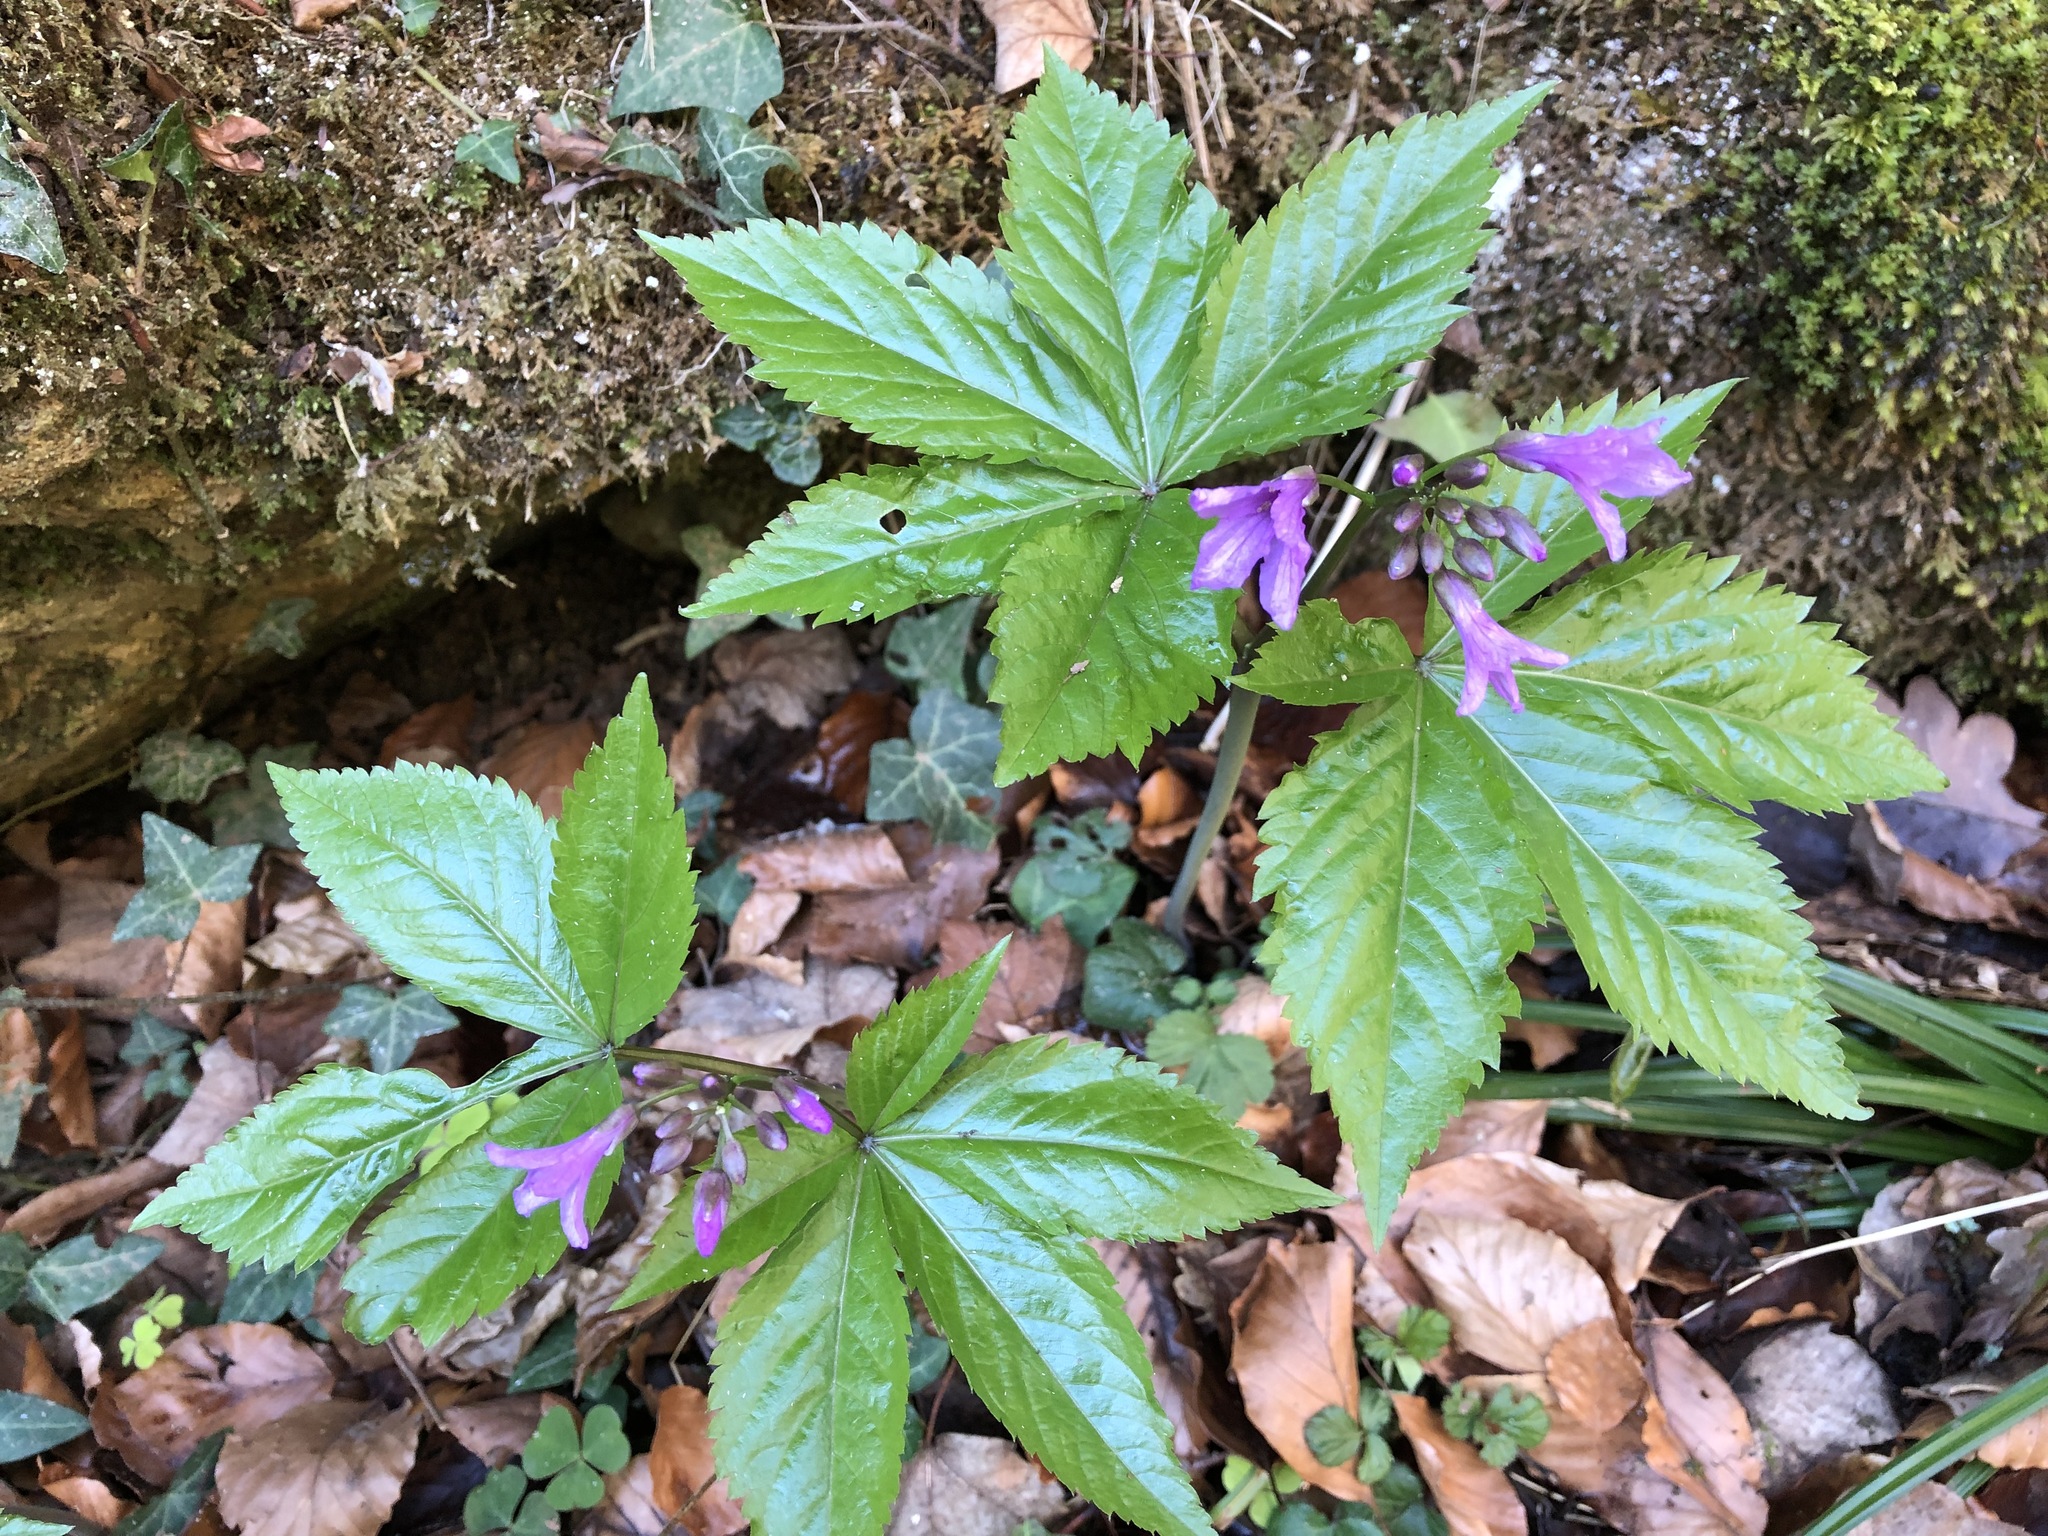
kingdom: Plantae
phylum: Tracheophyta
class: Magnoliopsida
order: Brassicales
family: Brassicaceae
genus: Cardamine
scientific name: Cardamine pentaphyllos
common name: Five-leaflet bitter-cress
